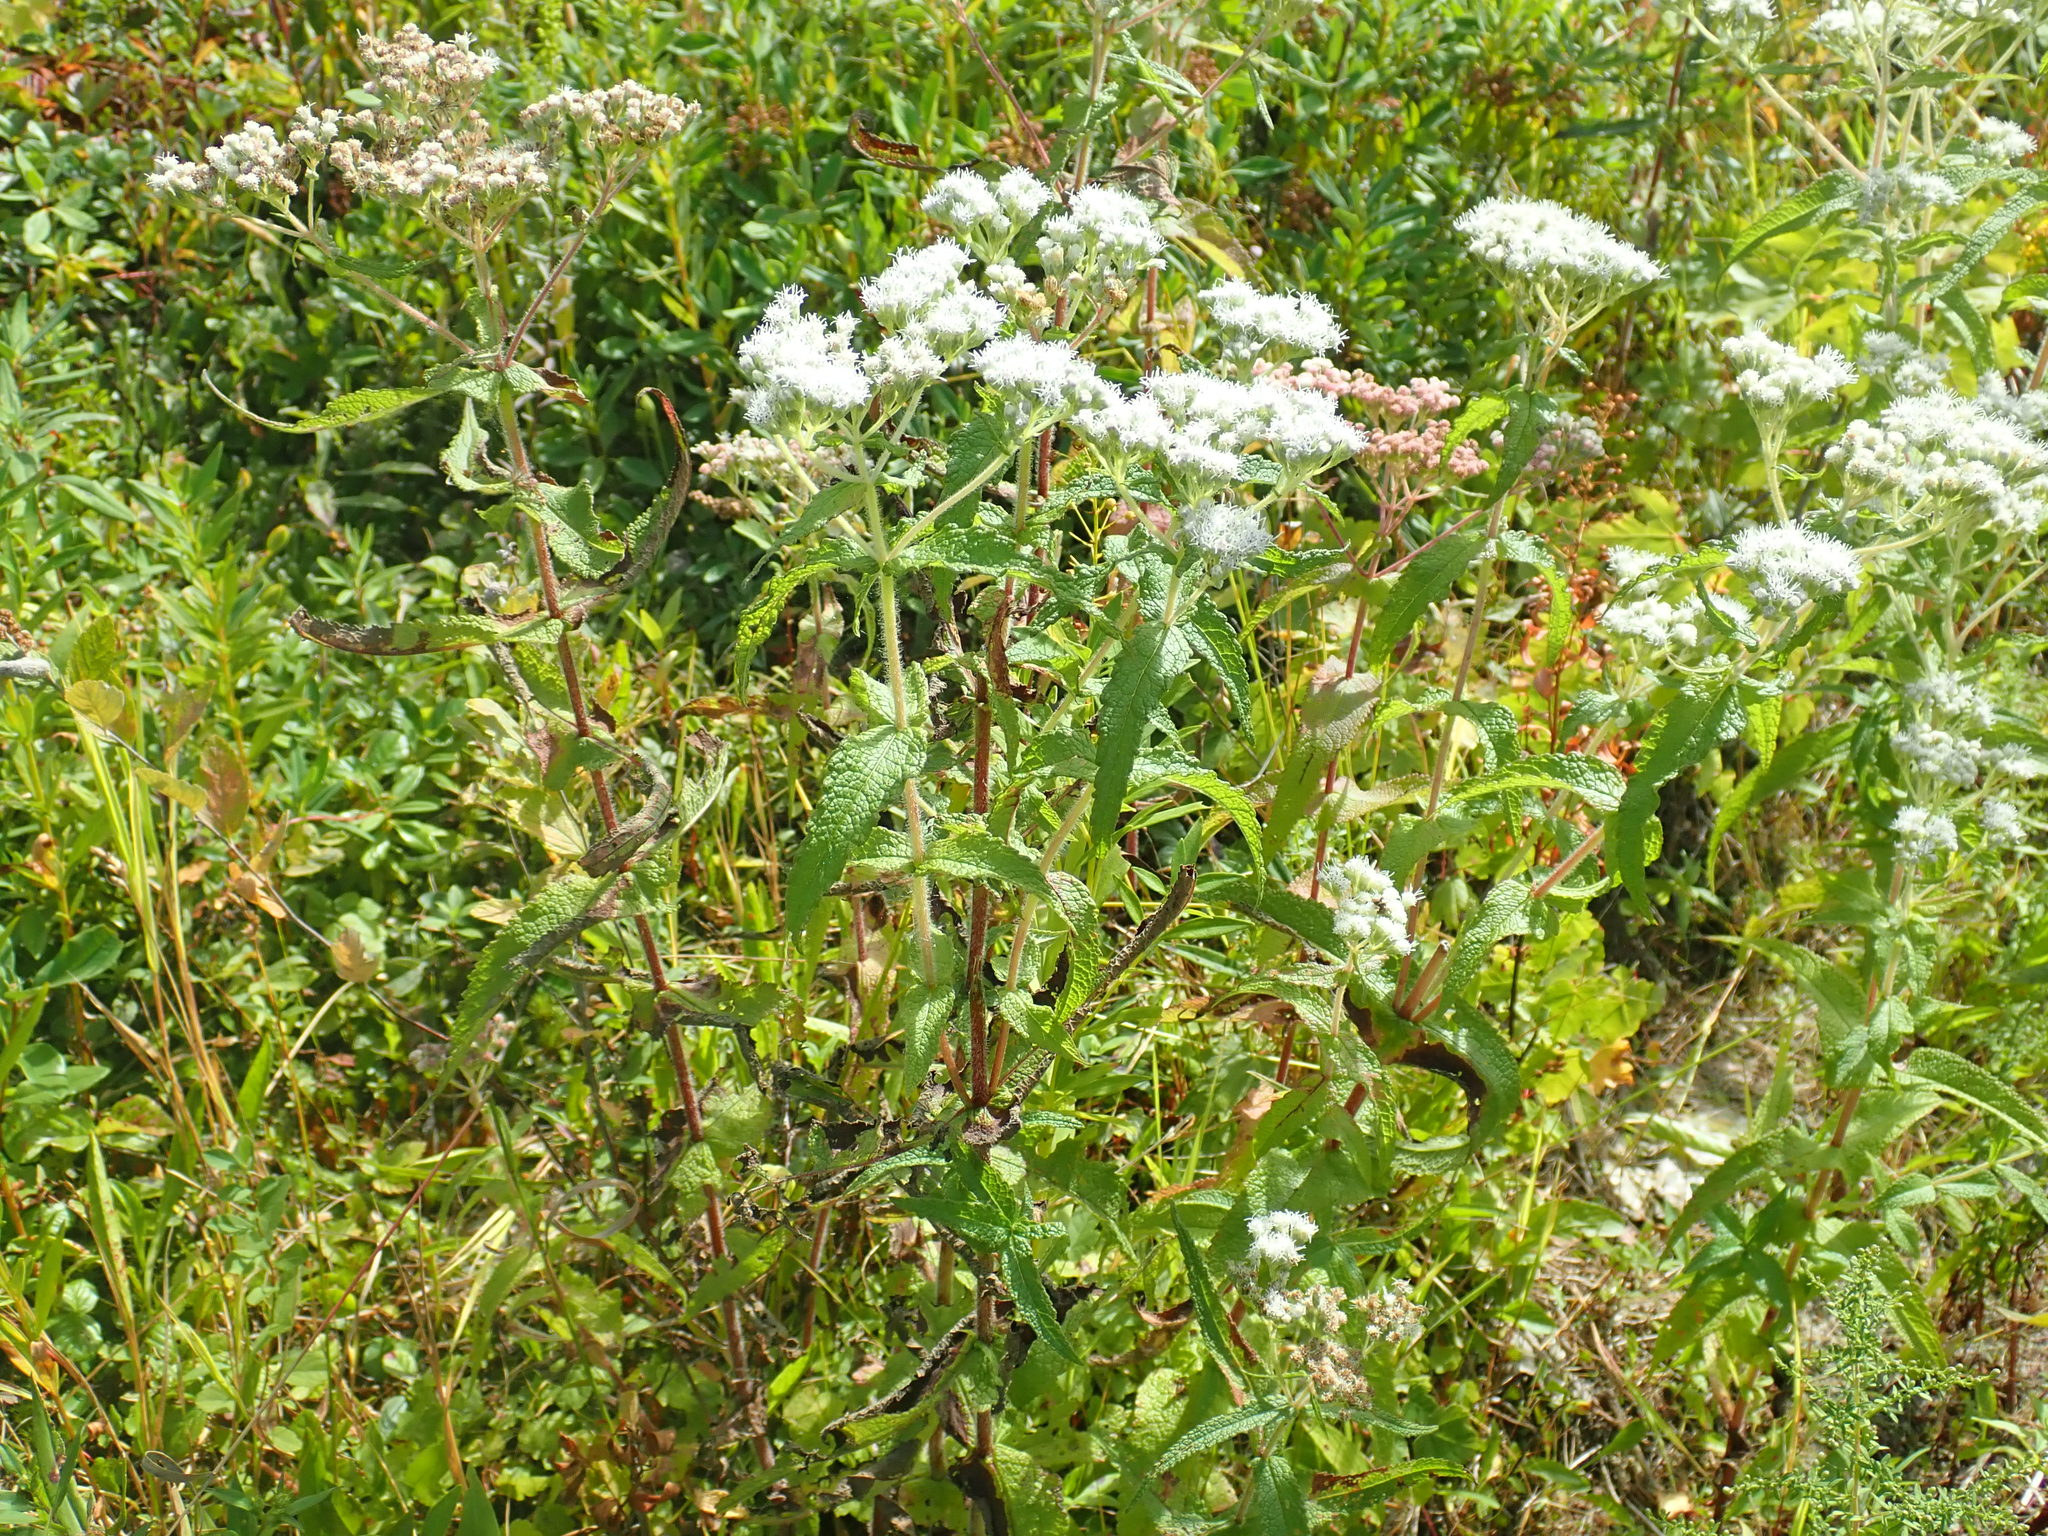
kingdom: Plantae
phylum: Tracheophyta
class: Magnoliopsida
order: Asterales
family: Asteraceae
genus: Eupatorium
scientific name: Eupatorium perfoliatum
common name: Boneset
